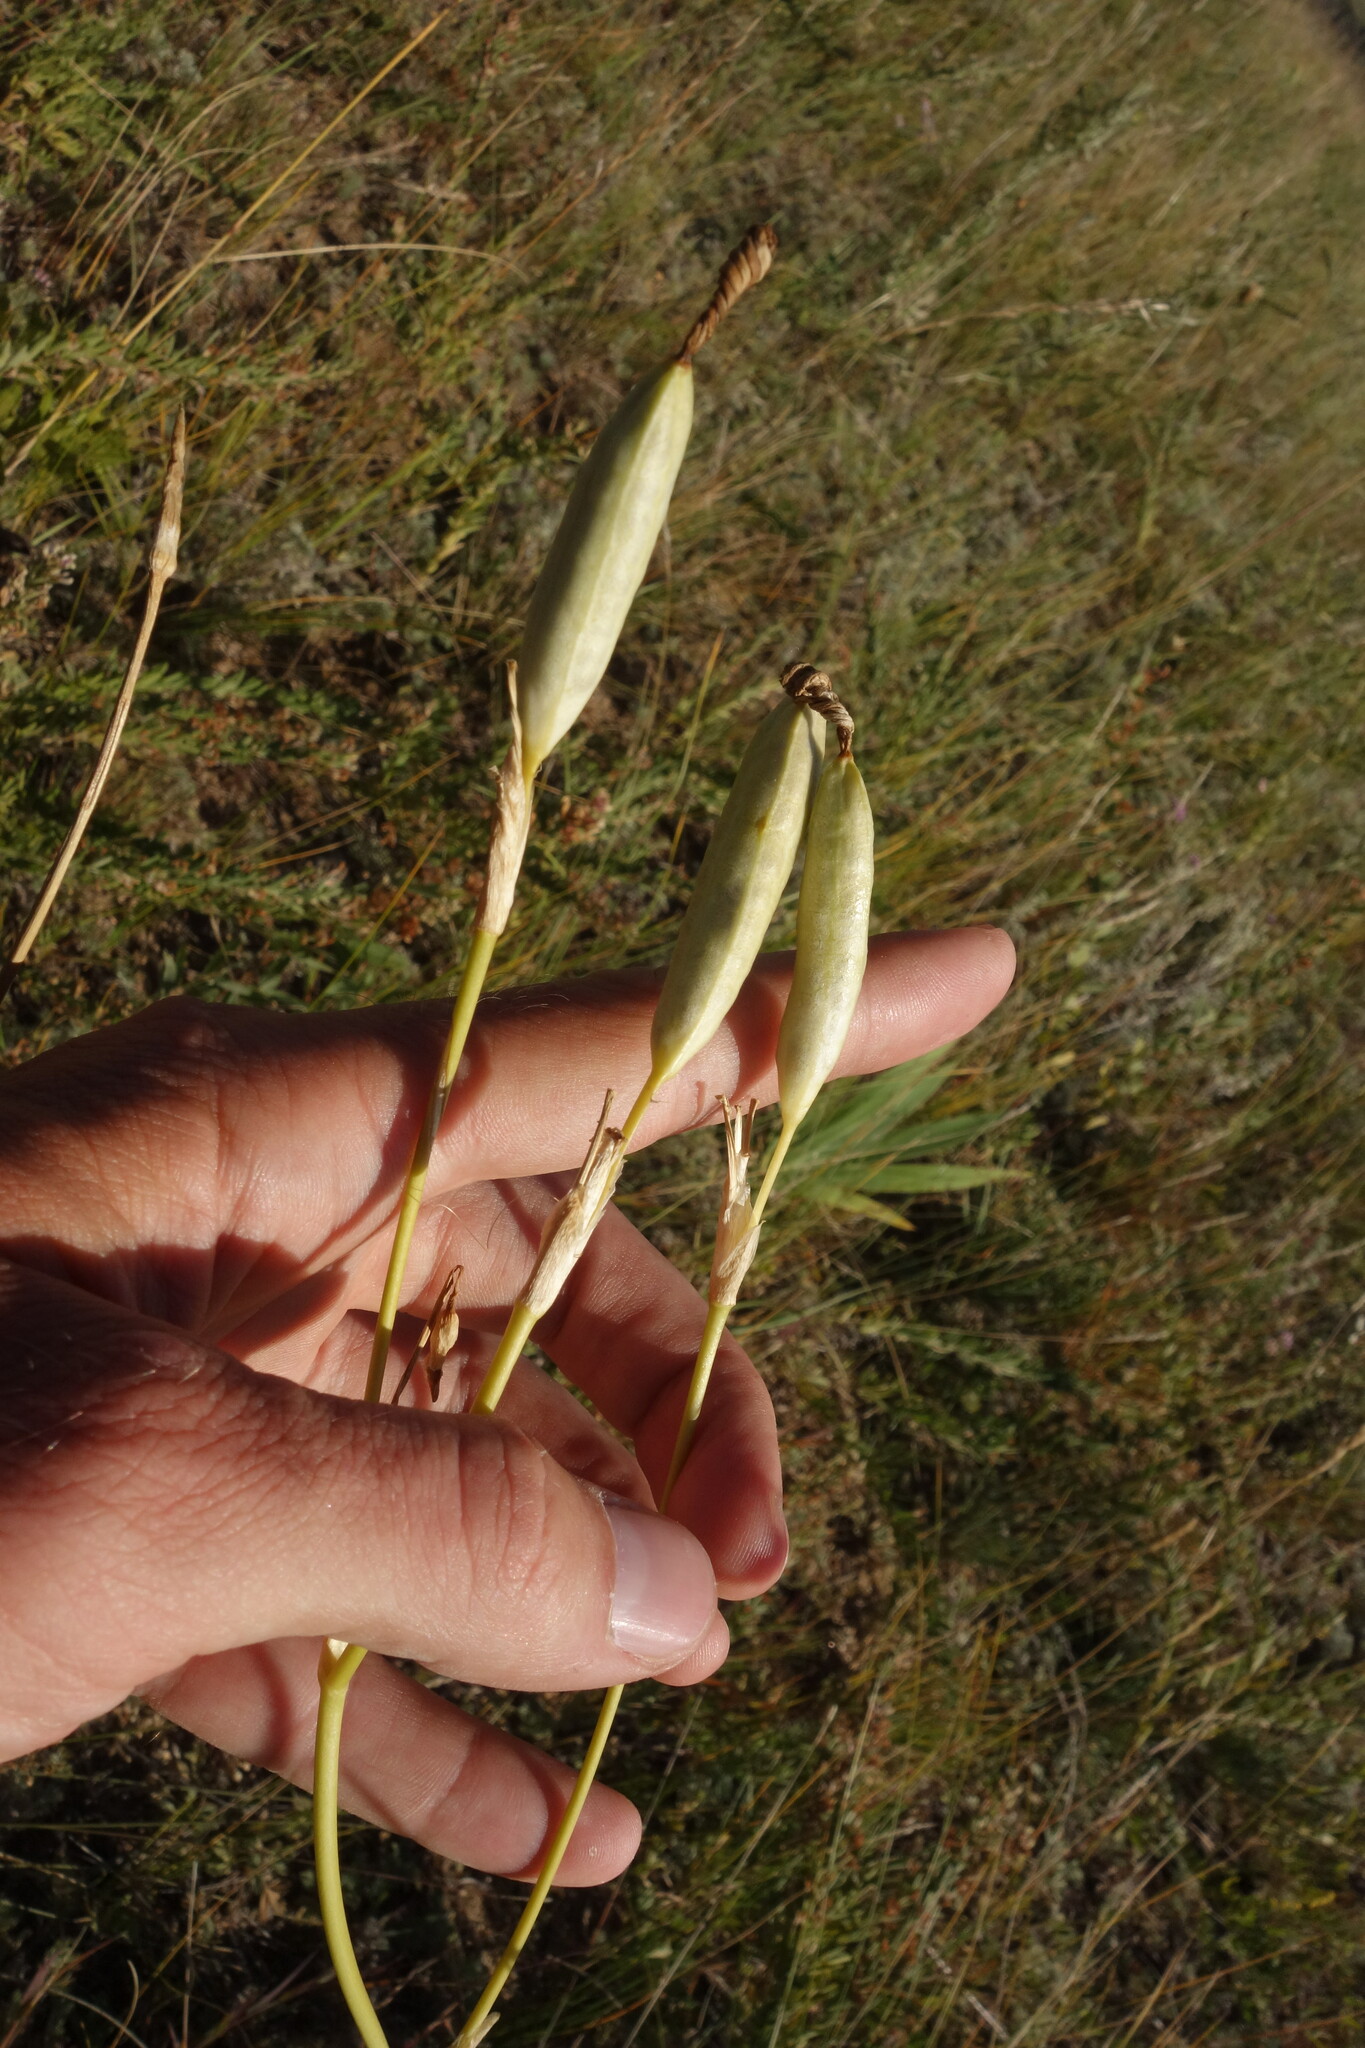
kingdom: Plantae
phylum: Tracheophyta
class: Liliopsida
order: Asparagales
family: Iridaceae
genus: Iris
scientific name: Iris dichotoma
